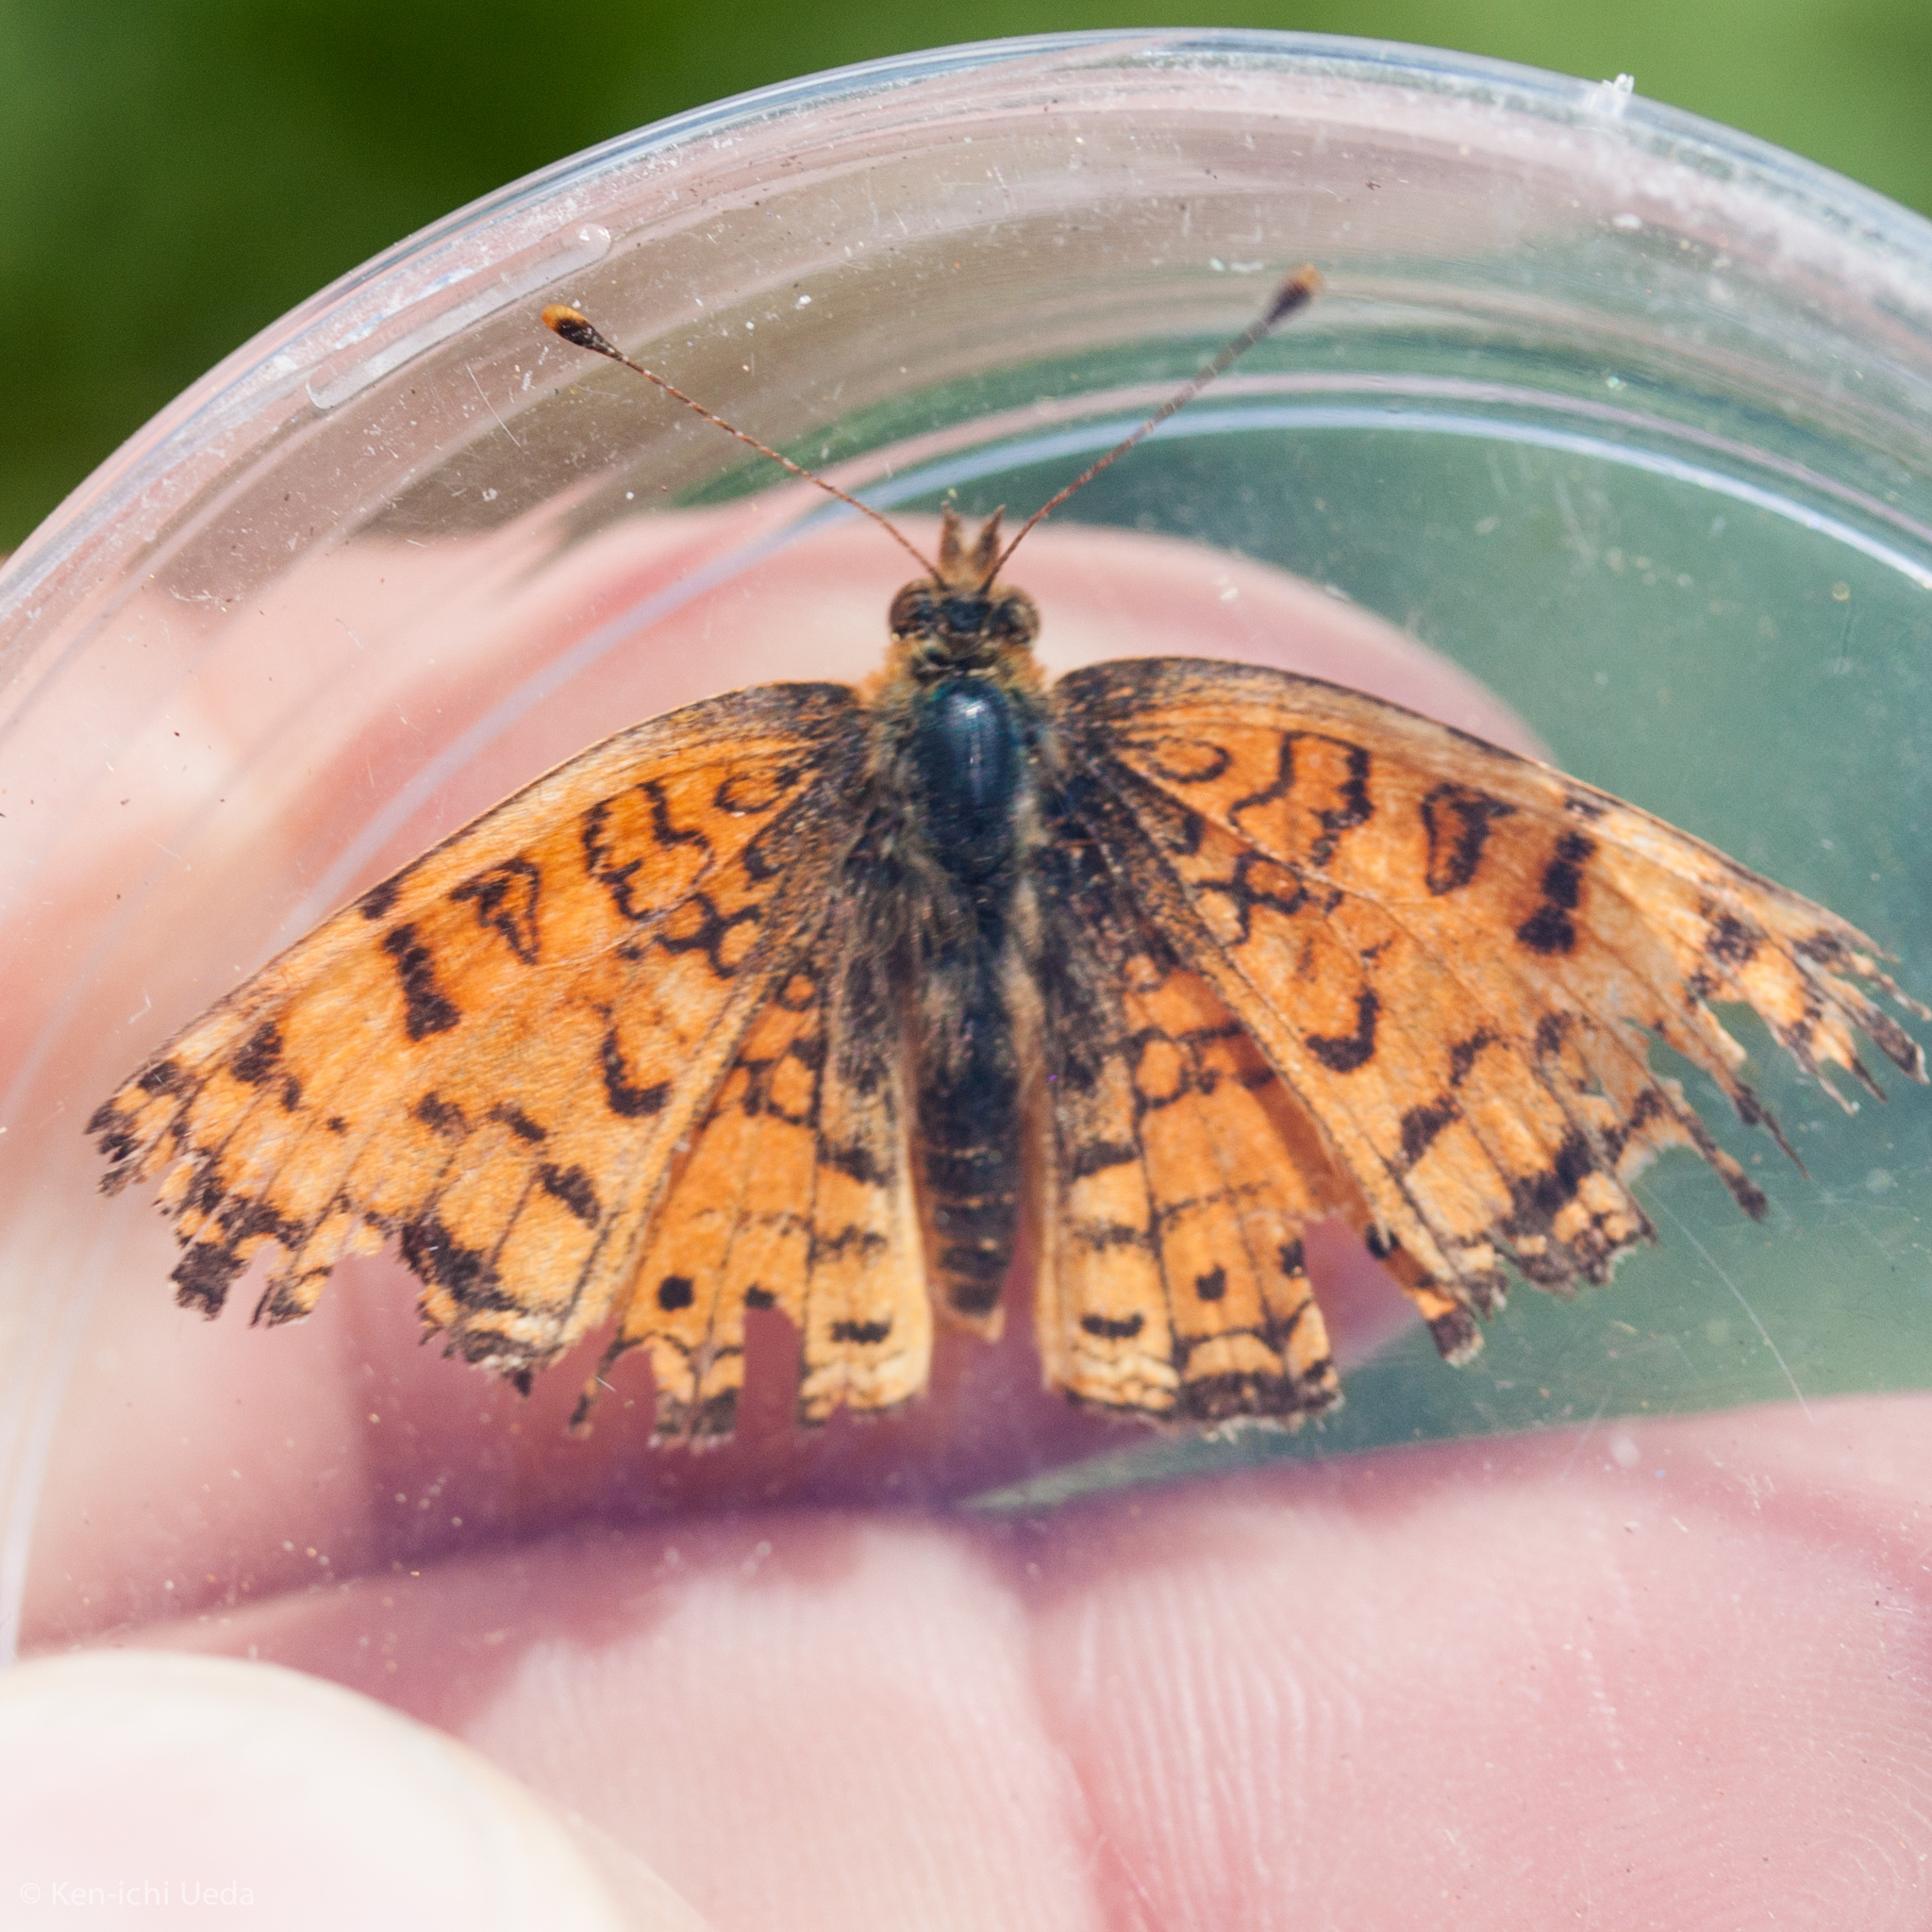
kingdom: Animalia
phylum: Arthropoda
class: Insecta
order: Lepidoptera
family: Nymphalidae
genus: Eresia
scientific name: Eresia aveyrona
